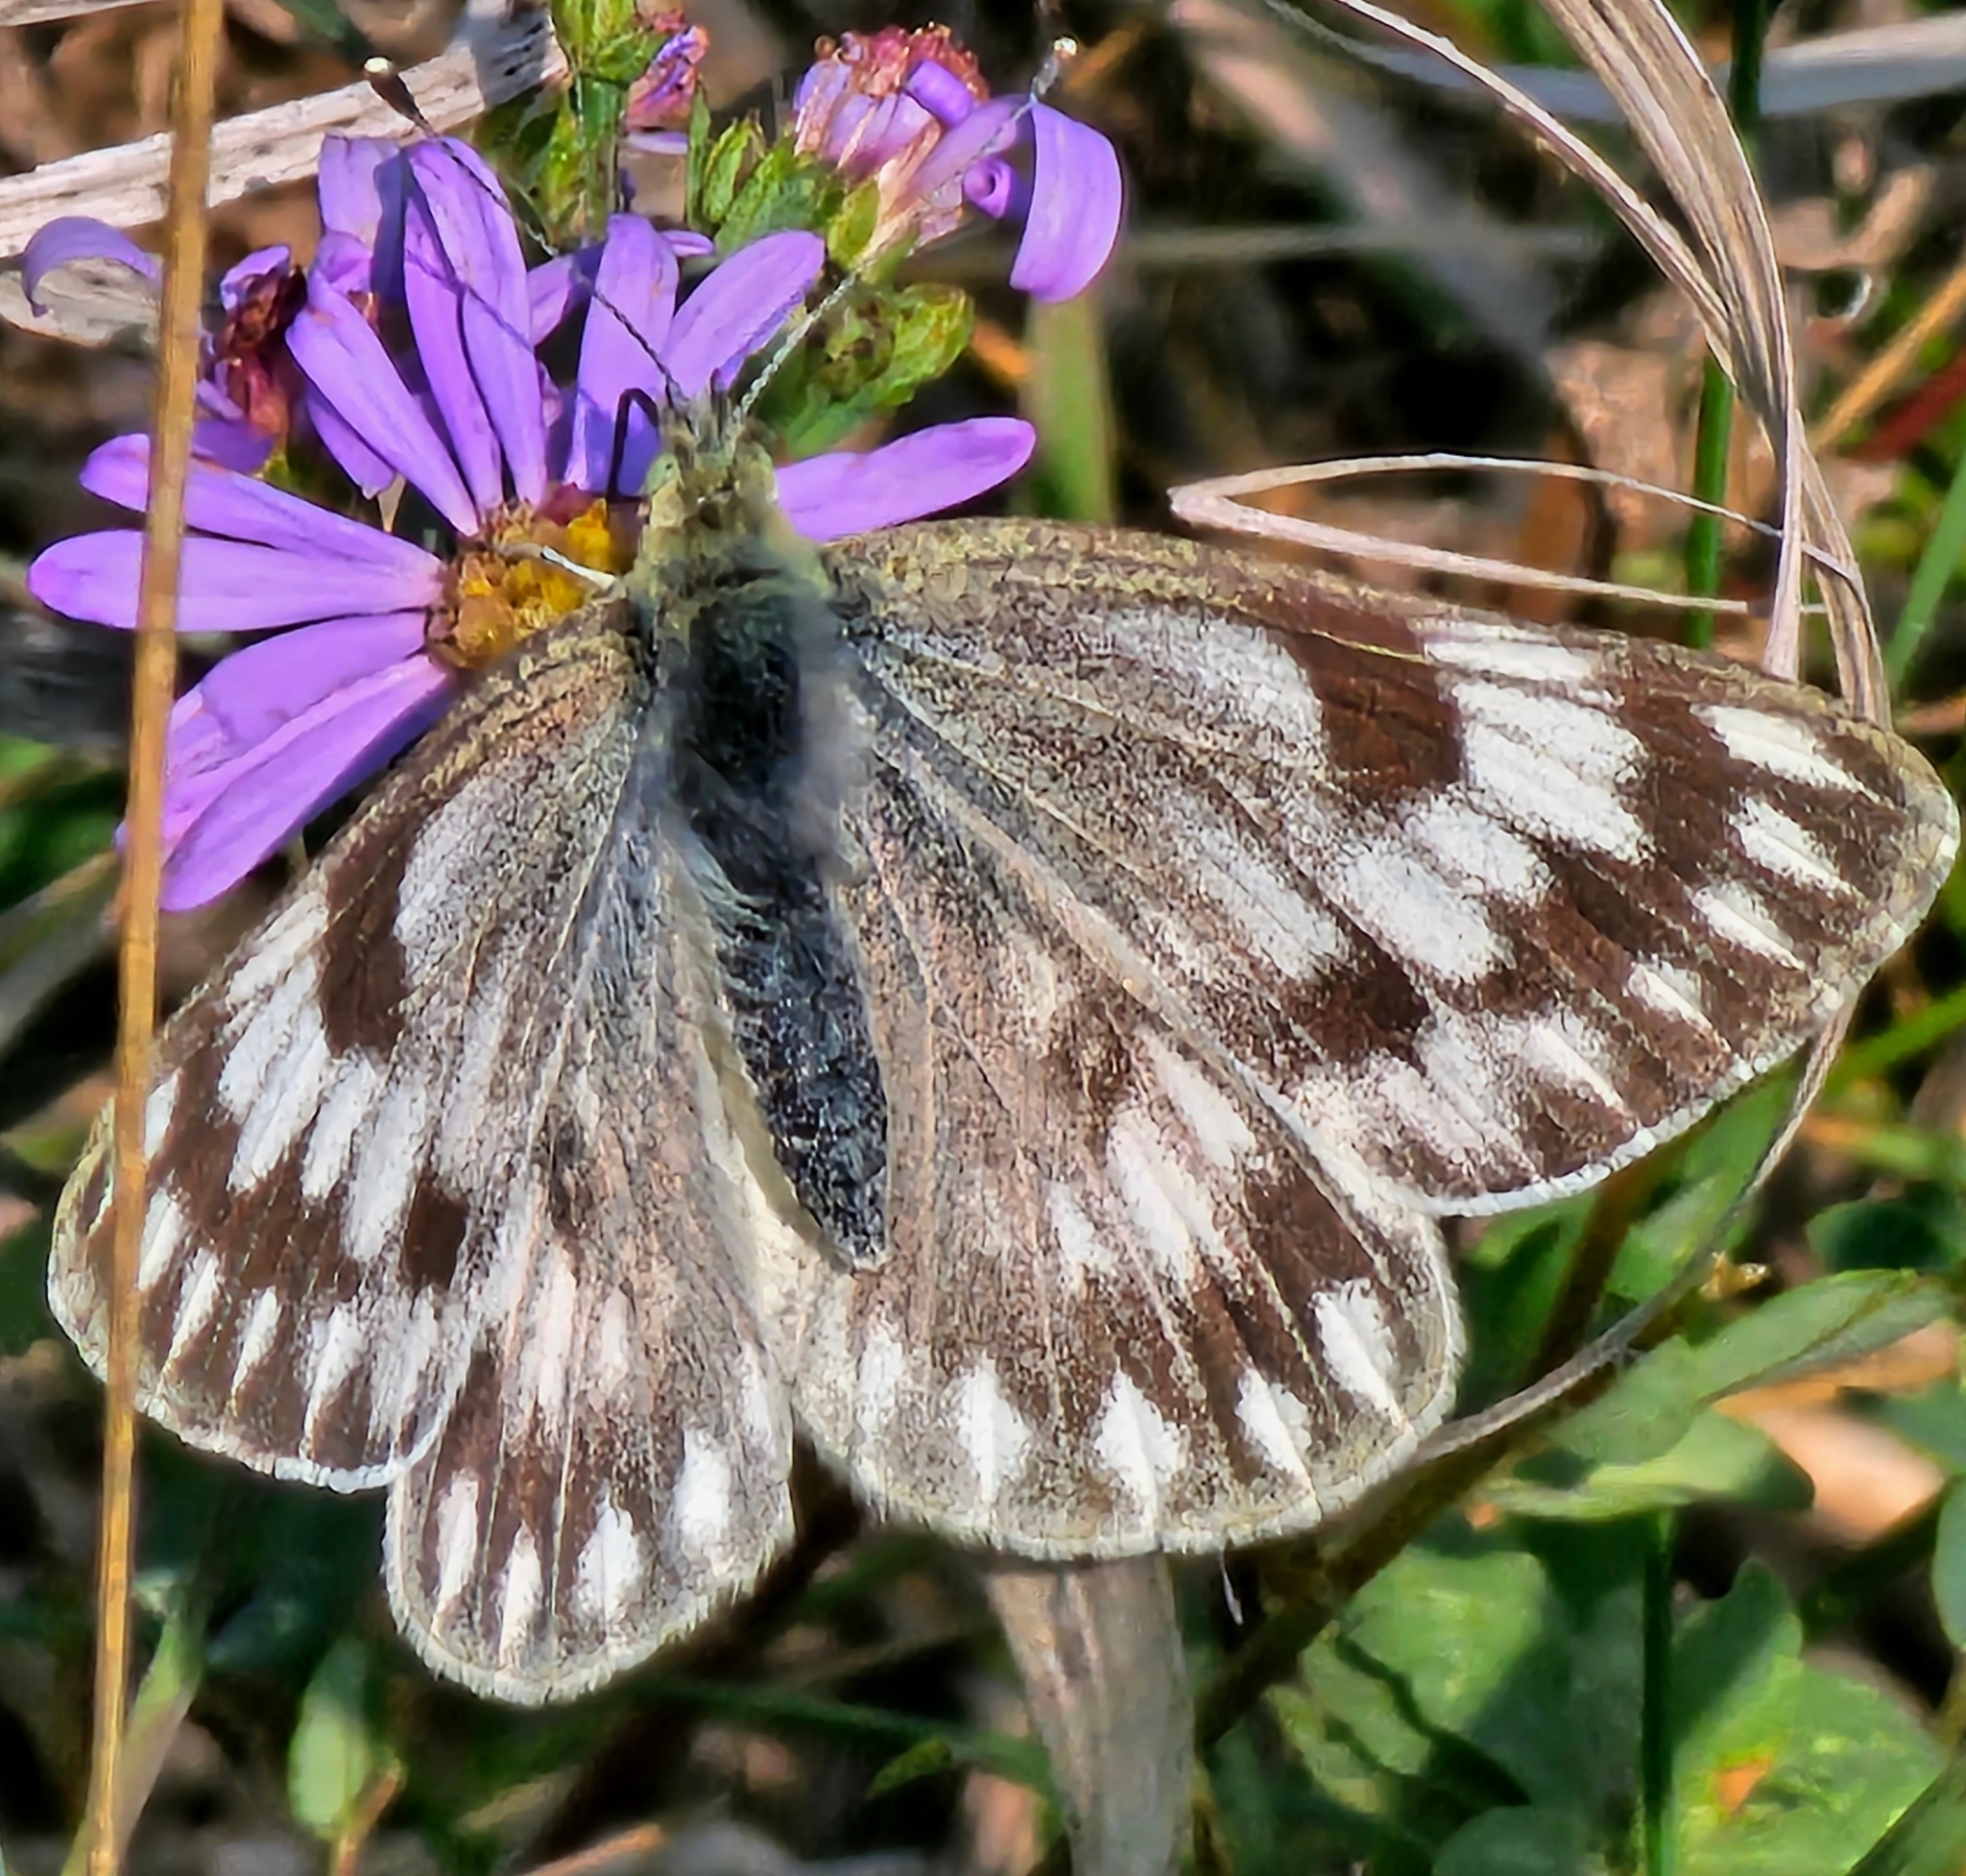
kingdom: Animalia
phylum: Arthropoda
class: Insecta
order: Lepidoptera
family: Pieridae
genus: Pontia
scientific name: Pontia occidentalis
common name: Western white
